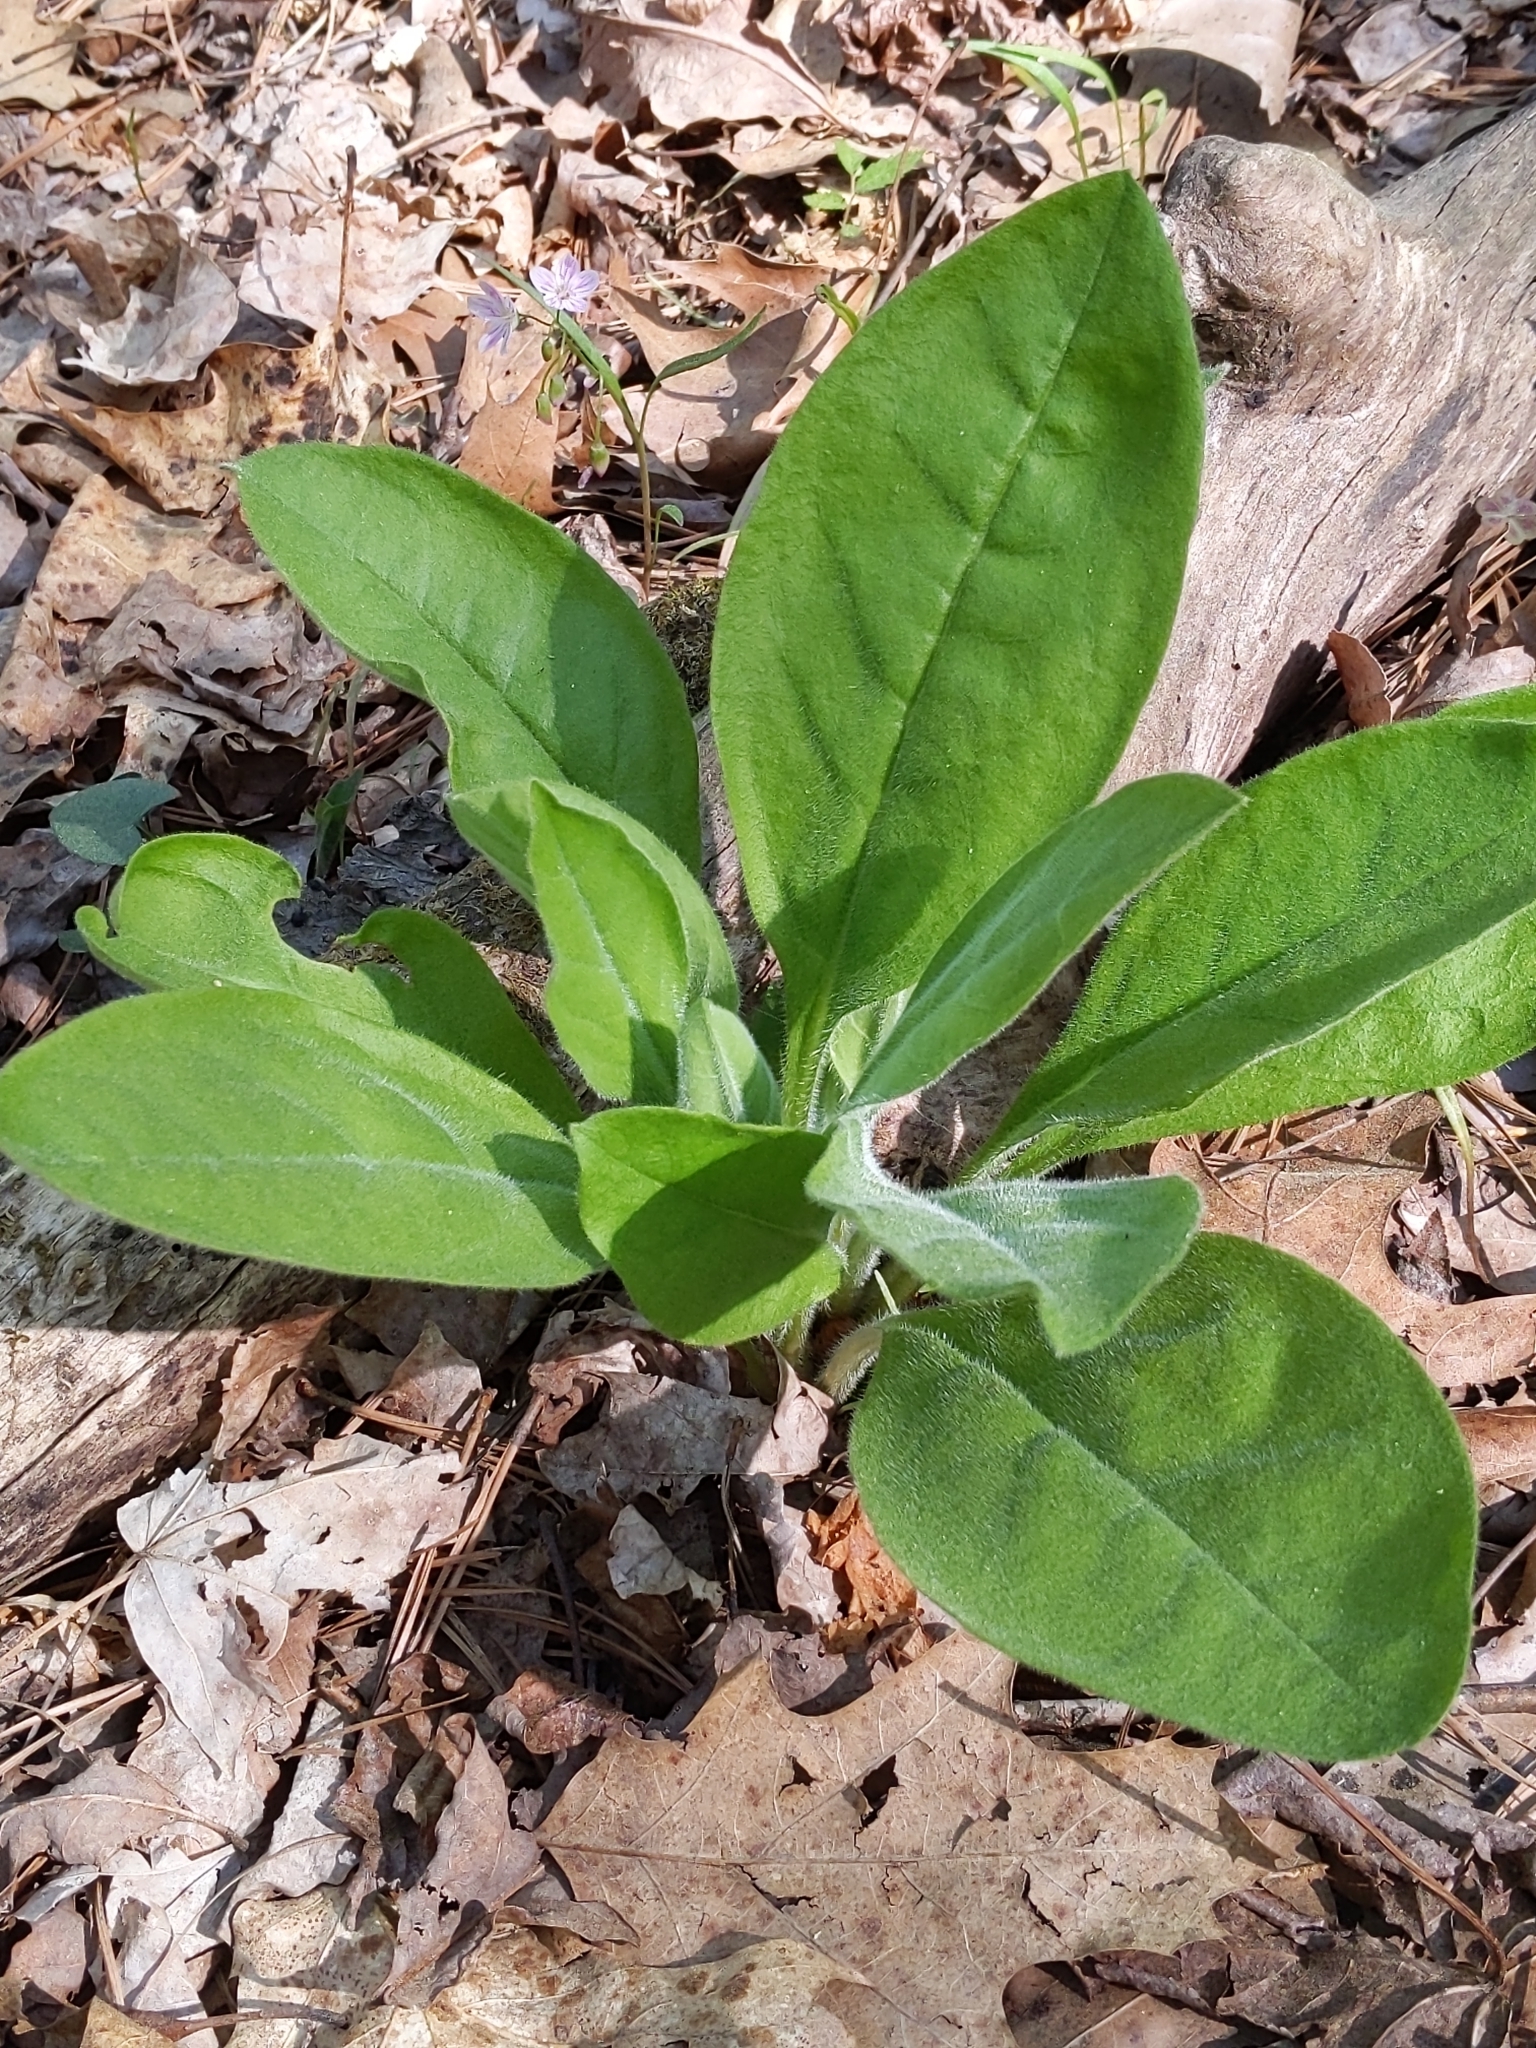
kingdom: Plantae
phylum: Tracheophyta
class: Magnoliopsida
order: Boraginales
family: Boraginaceae
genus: Andersonglossum
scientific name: Andersonglossum virginianum
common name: Wild comfrey
